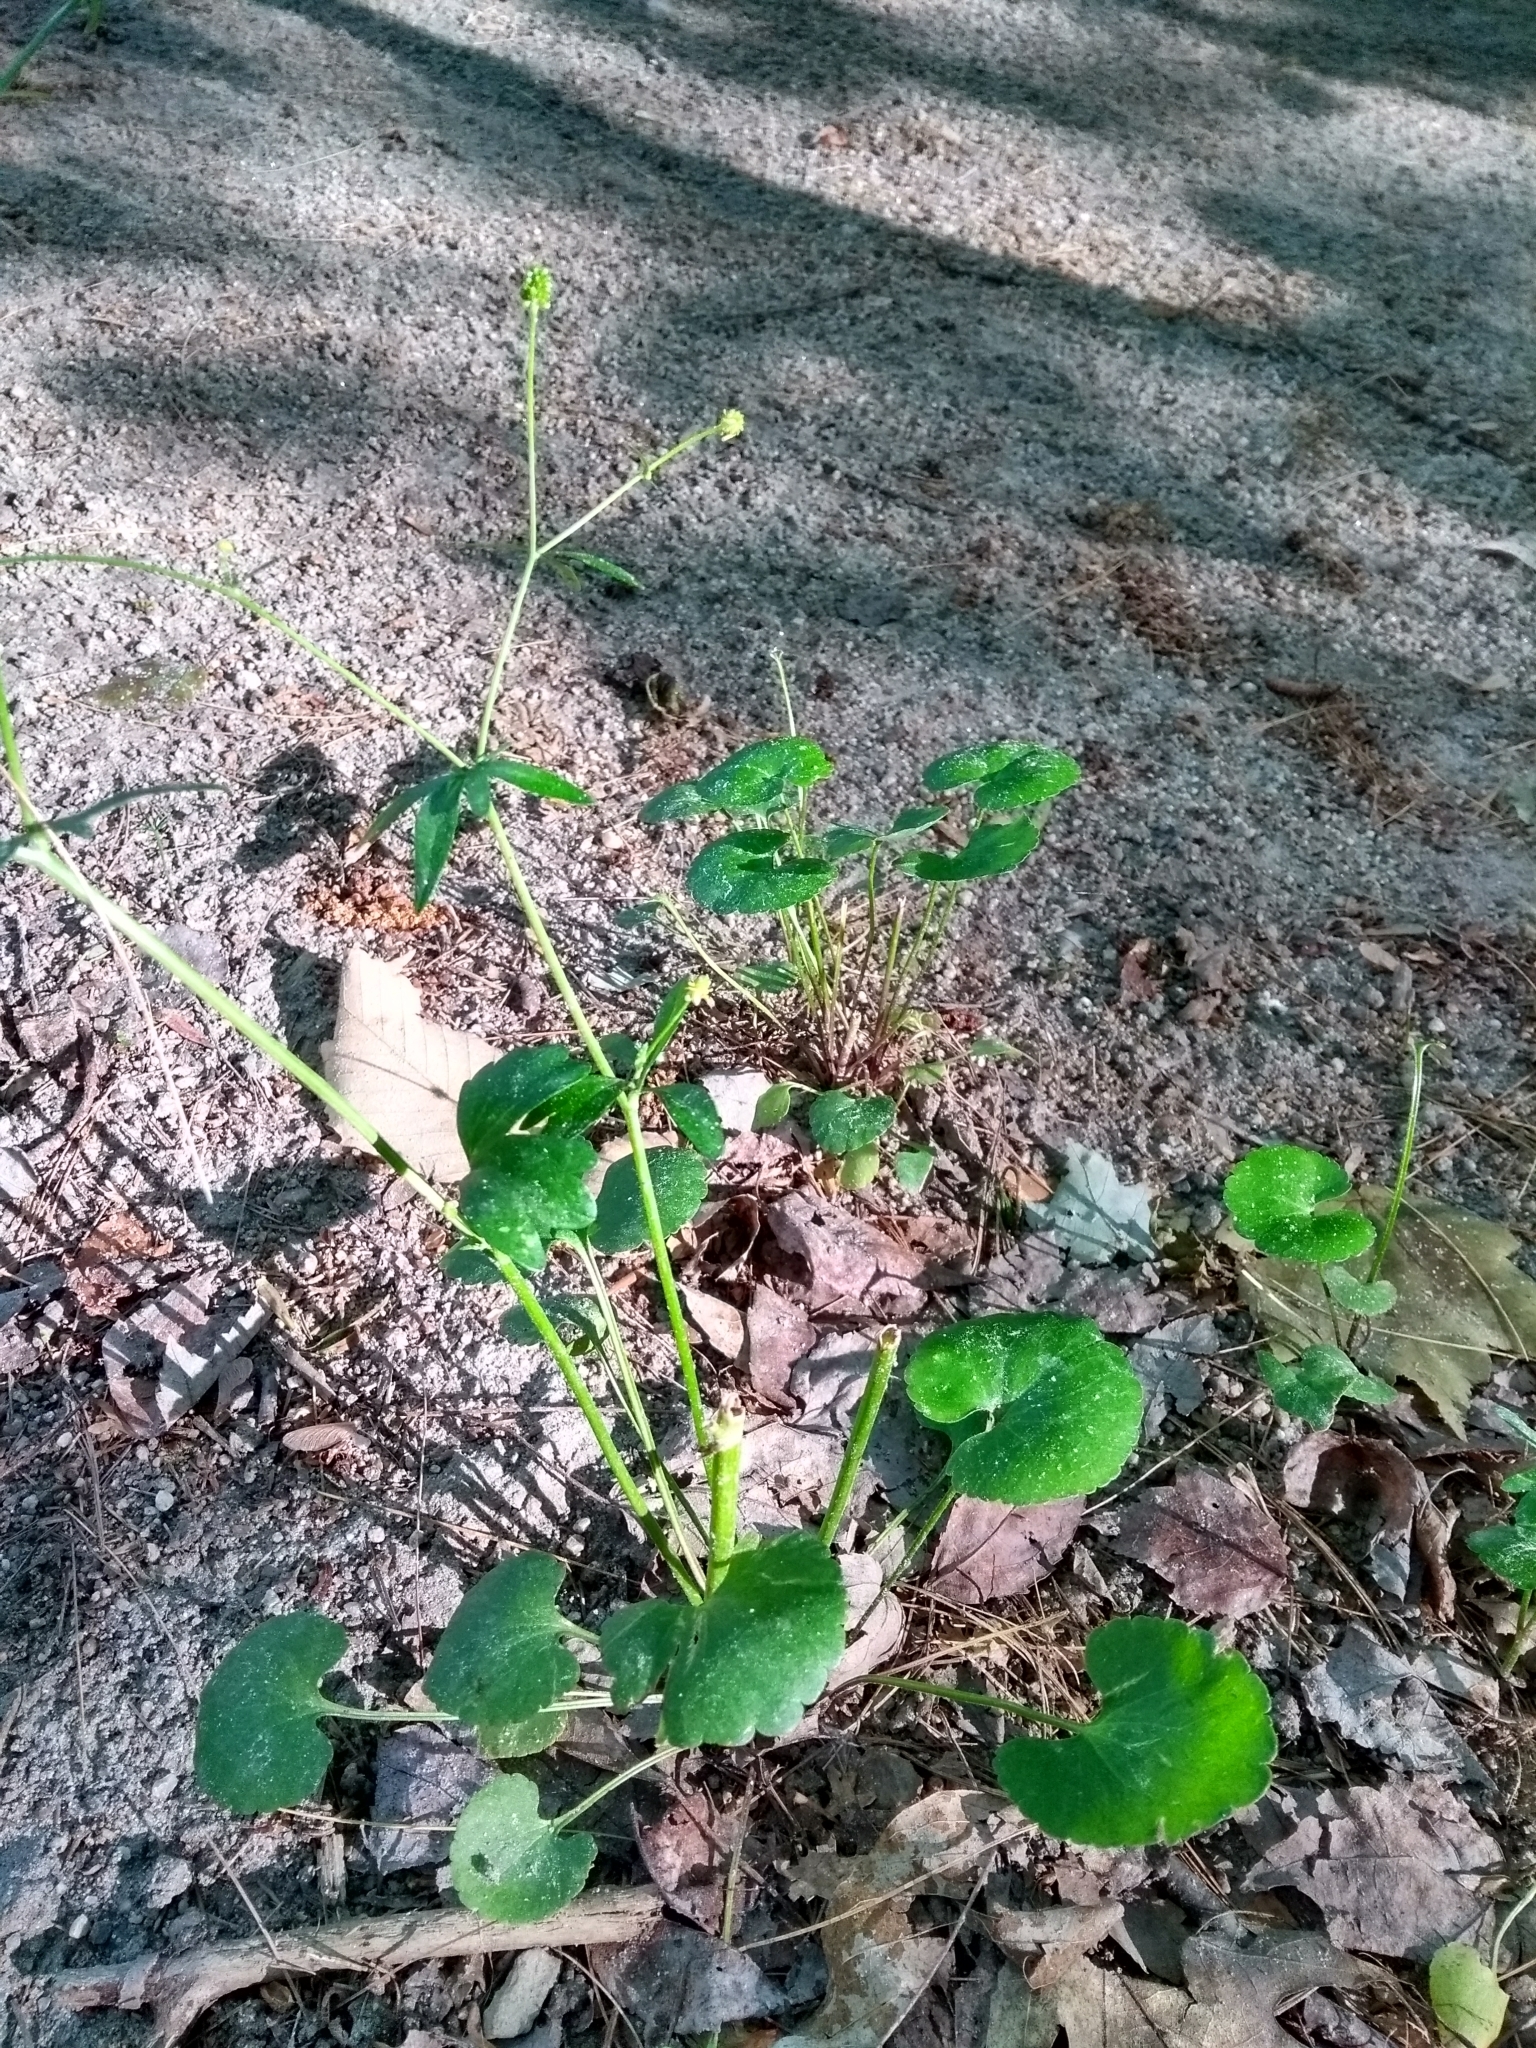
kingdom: Plantae
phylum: Tracheophyta
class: Magnoliopsida
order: Ranunculales
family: Ranunculaceae
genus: Ranunculus
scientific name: Ranunculus abortivus
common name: Early wood buttercup
